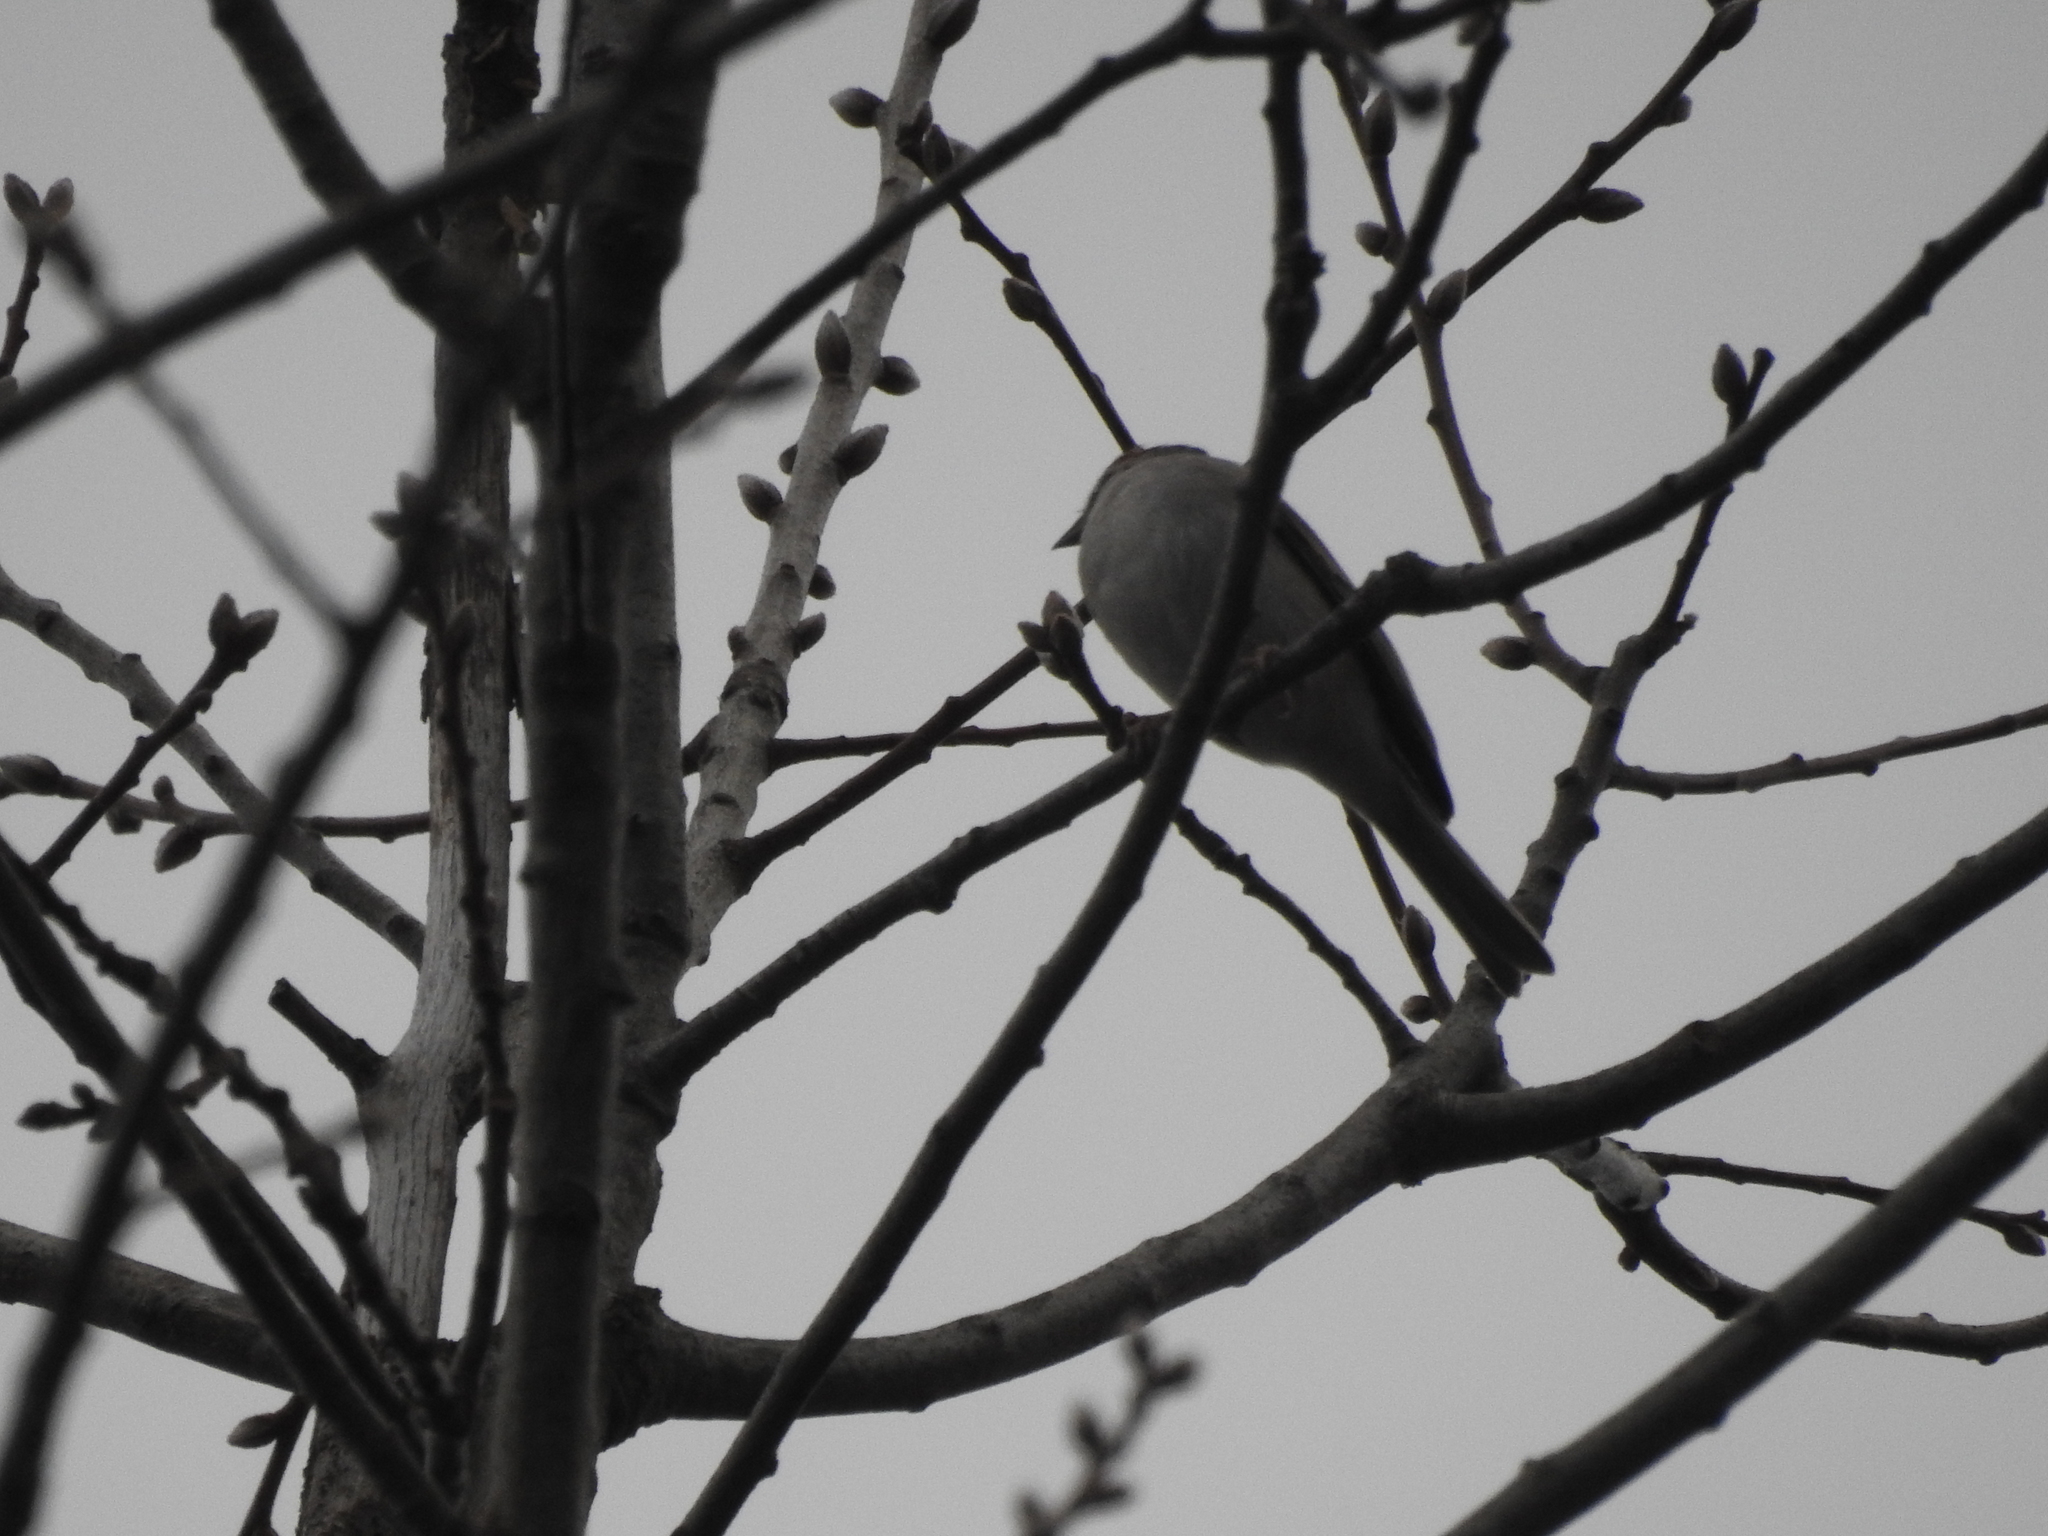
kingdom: Animalia
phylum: Chordata
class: Aves
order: Passeriformes
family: Passerellidae
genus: Spizella
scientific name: Spizella passerina
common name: Chipping sparrow
